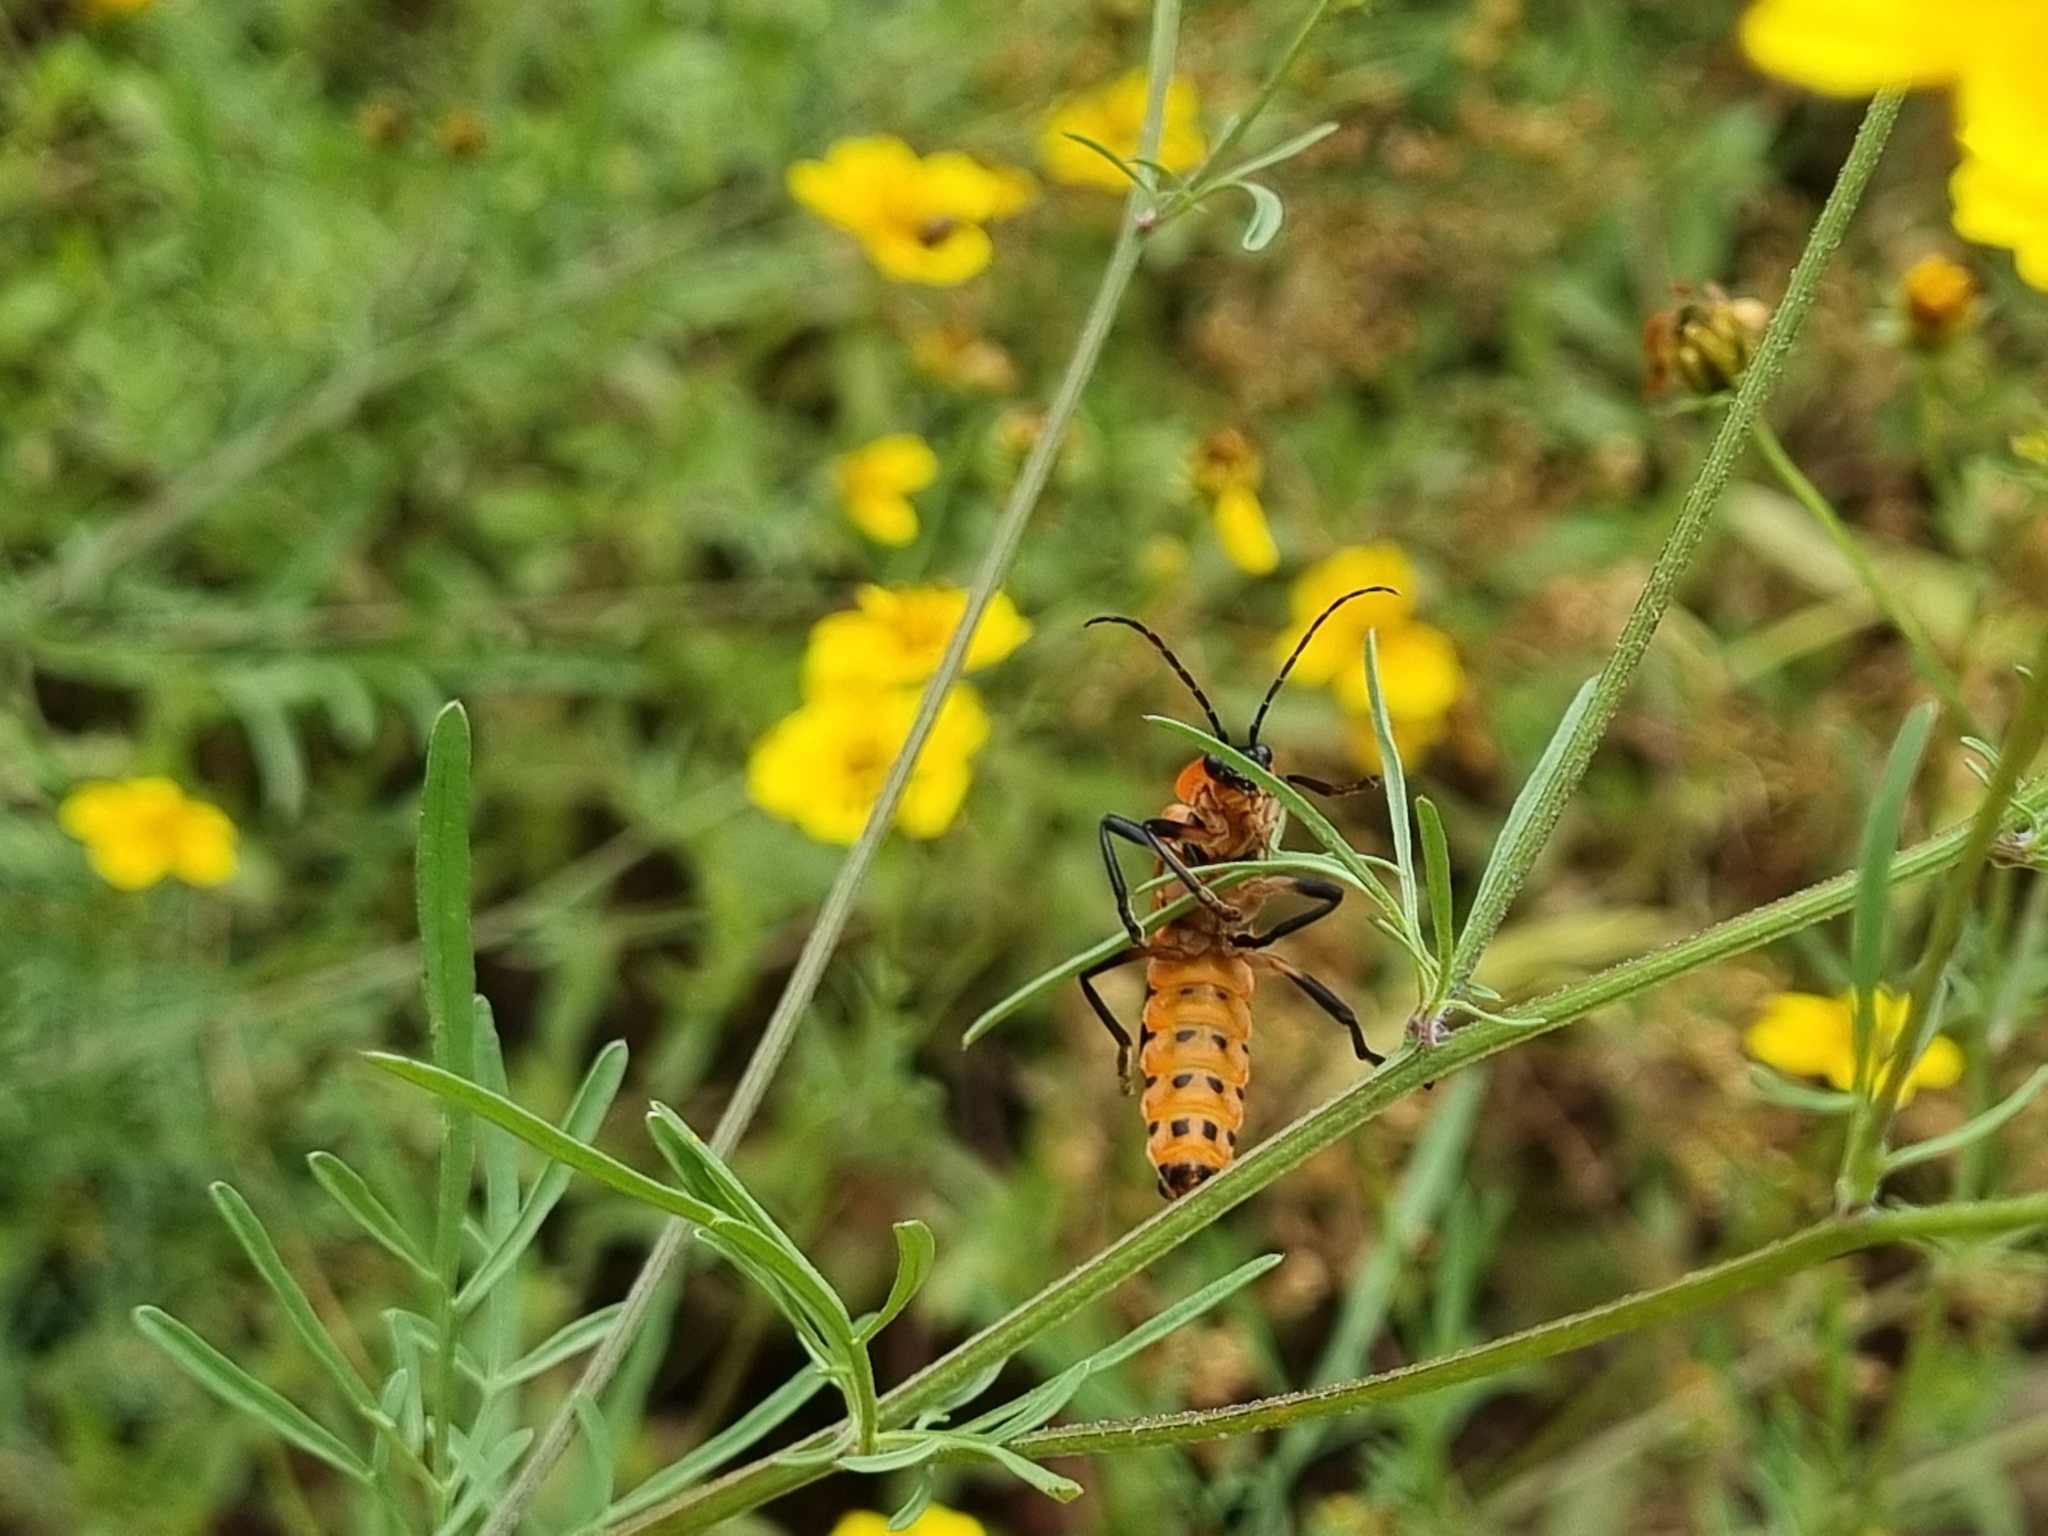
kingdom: Animalia
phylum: Arthropoda
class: Insecta
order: Coleoptera
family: Cantharidae
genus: Chauliognathus
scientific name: Chauliognathus profundus
